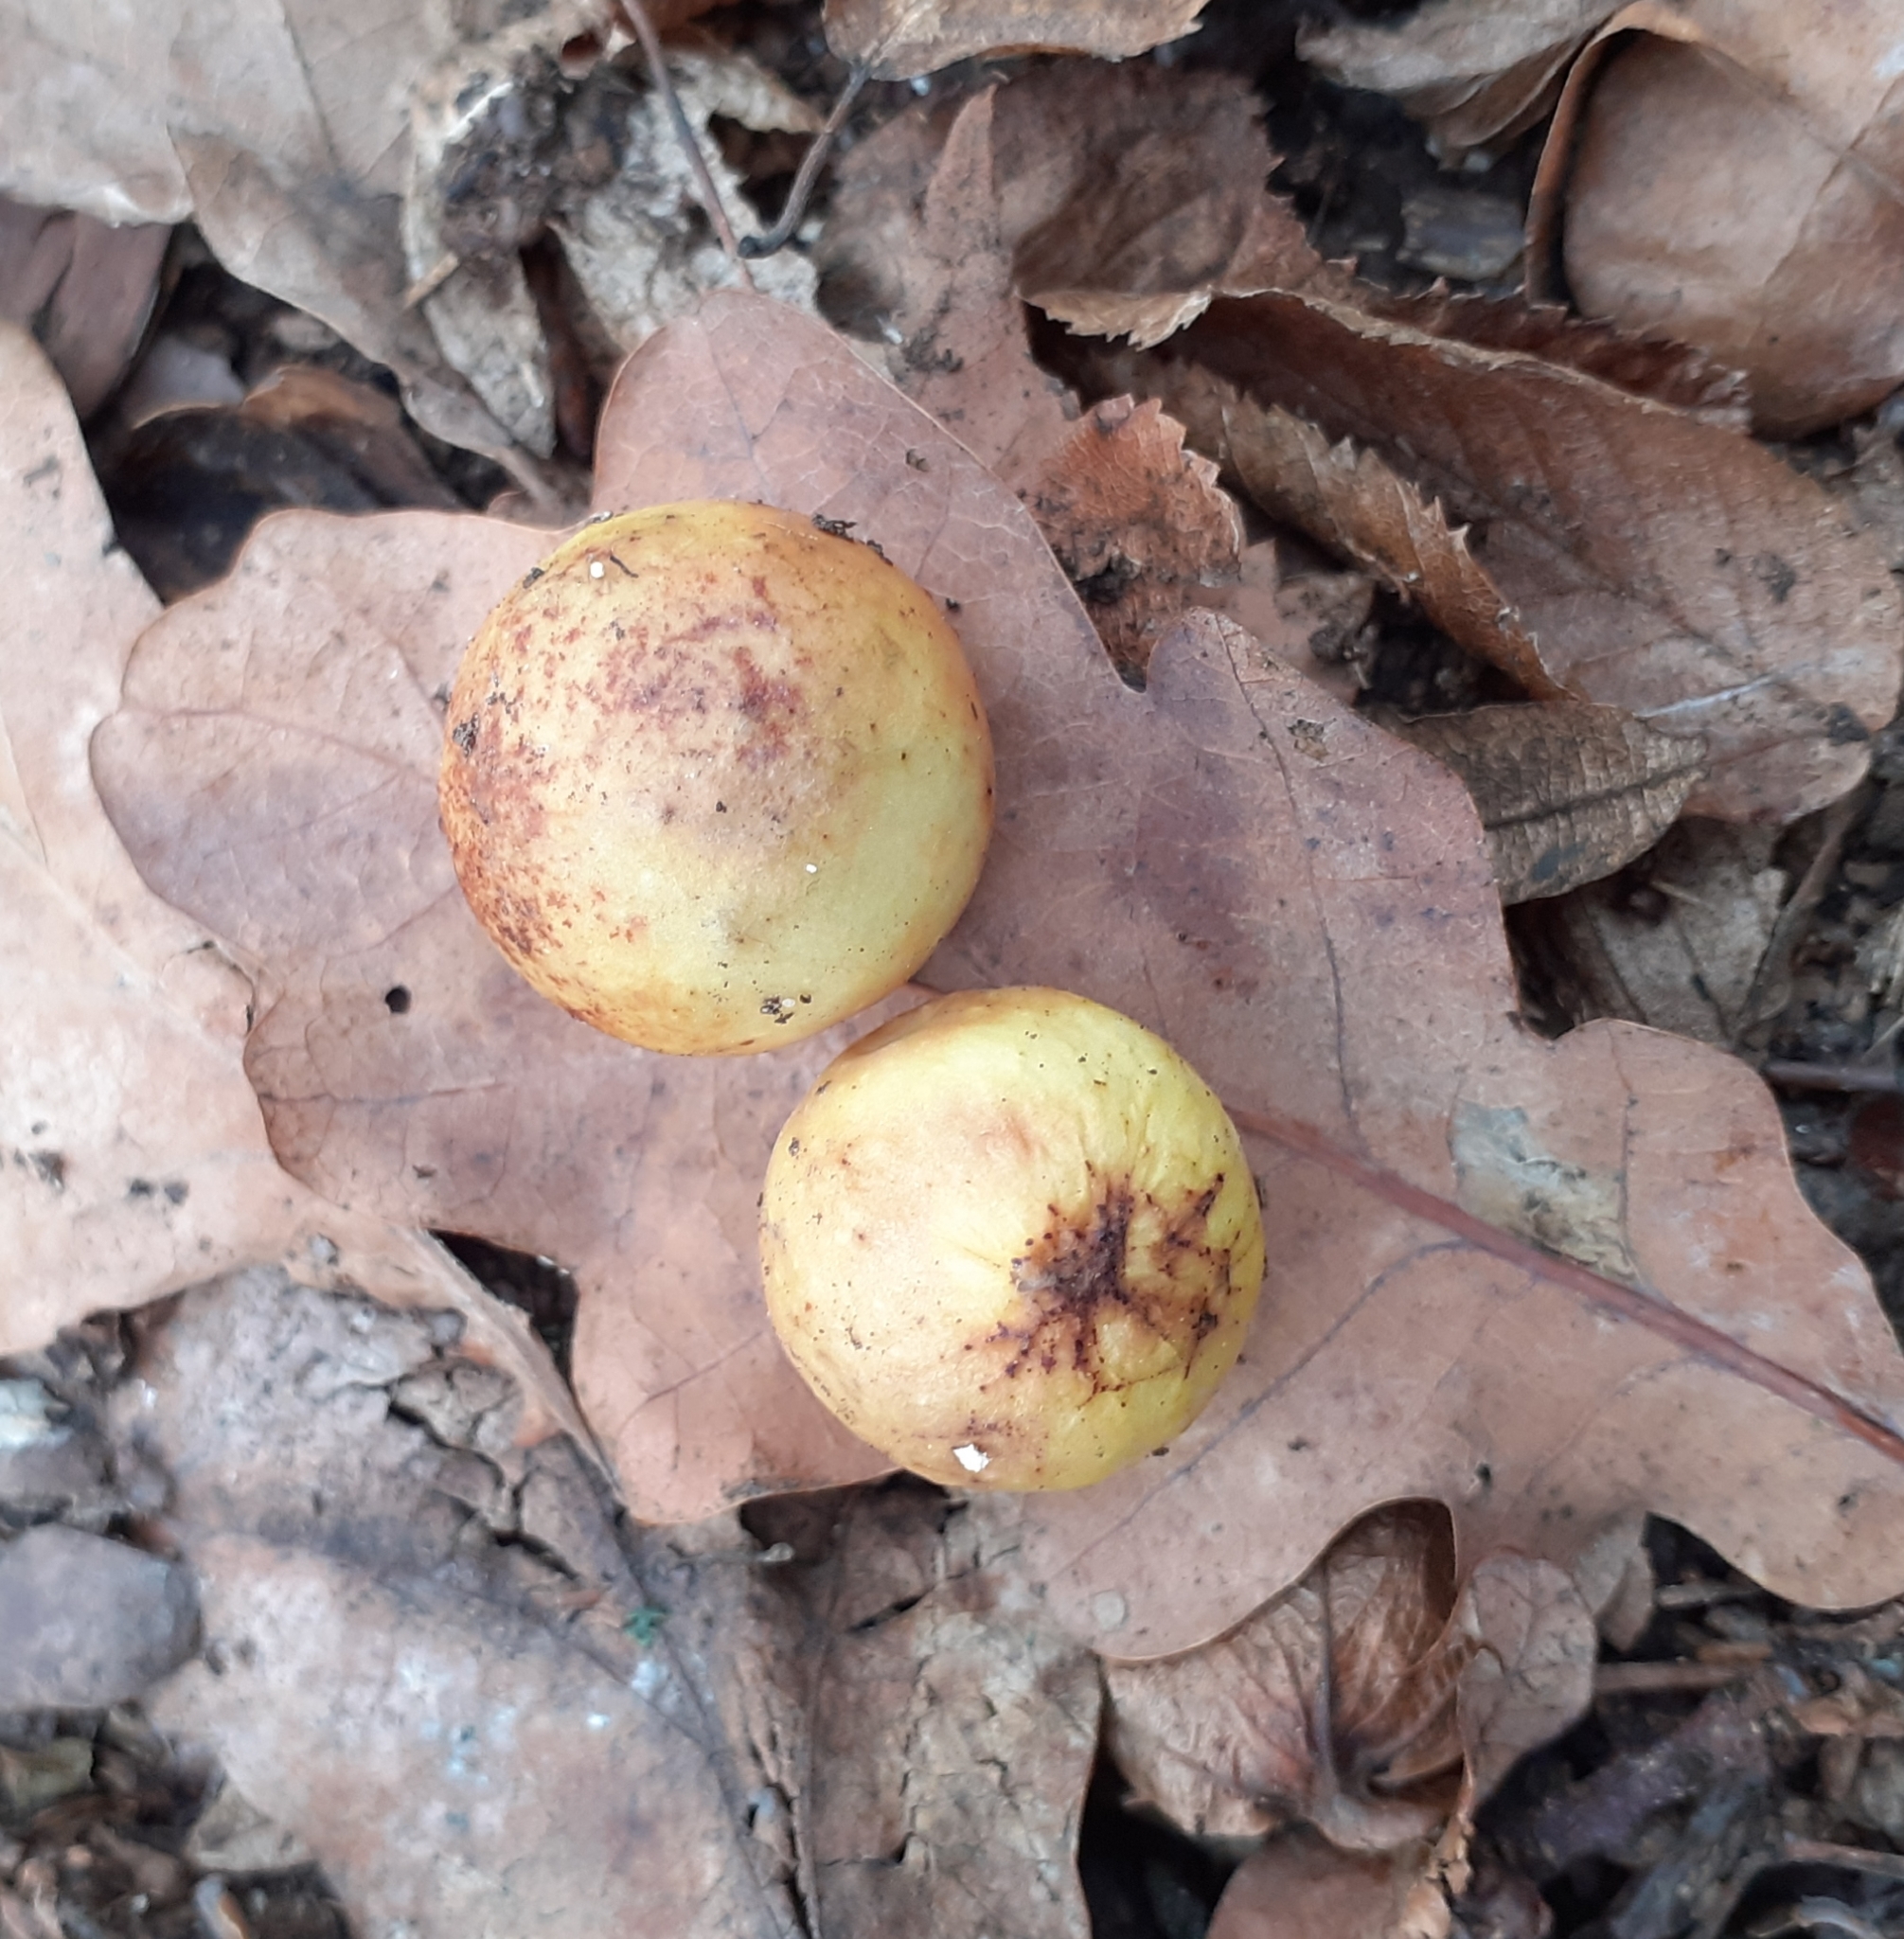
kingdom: Animalia
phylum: Arthropoda
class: Insecta
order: Hymenoptera
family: Cynipidae
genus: Cynips
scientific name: Cynips quercusfolii
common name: Cherry gall
